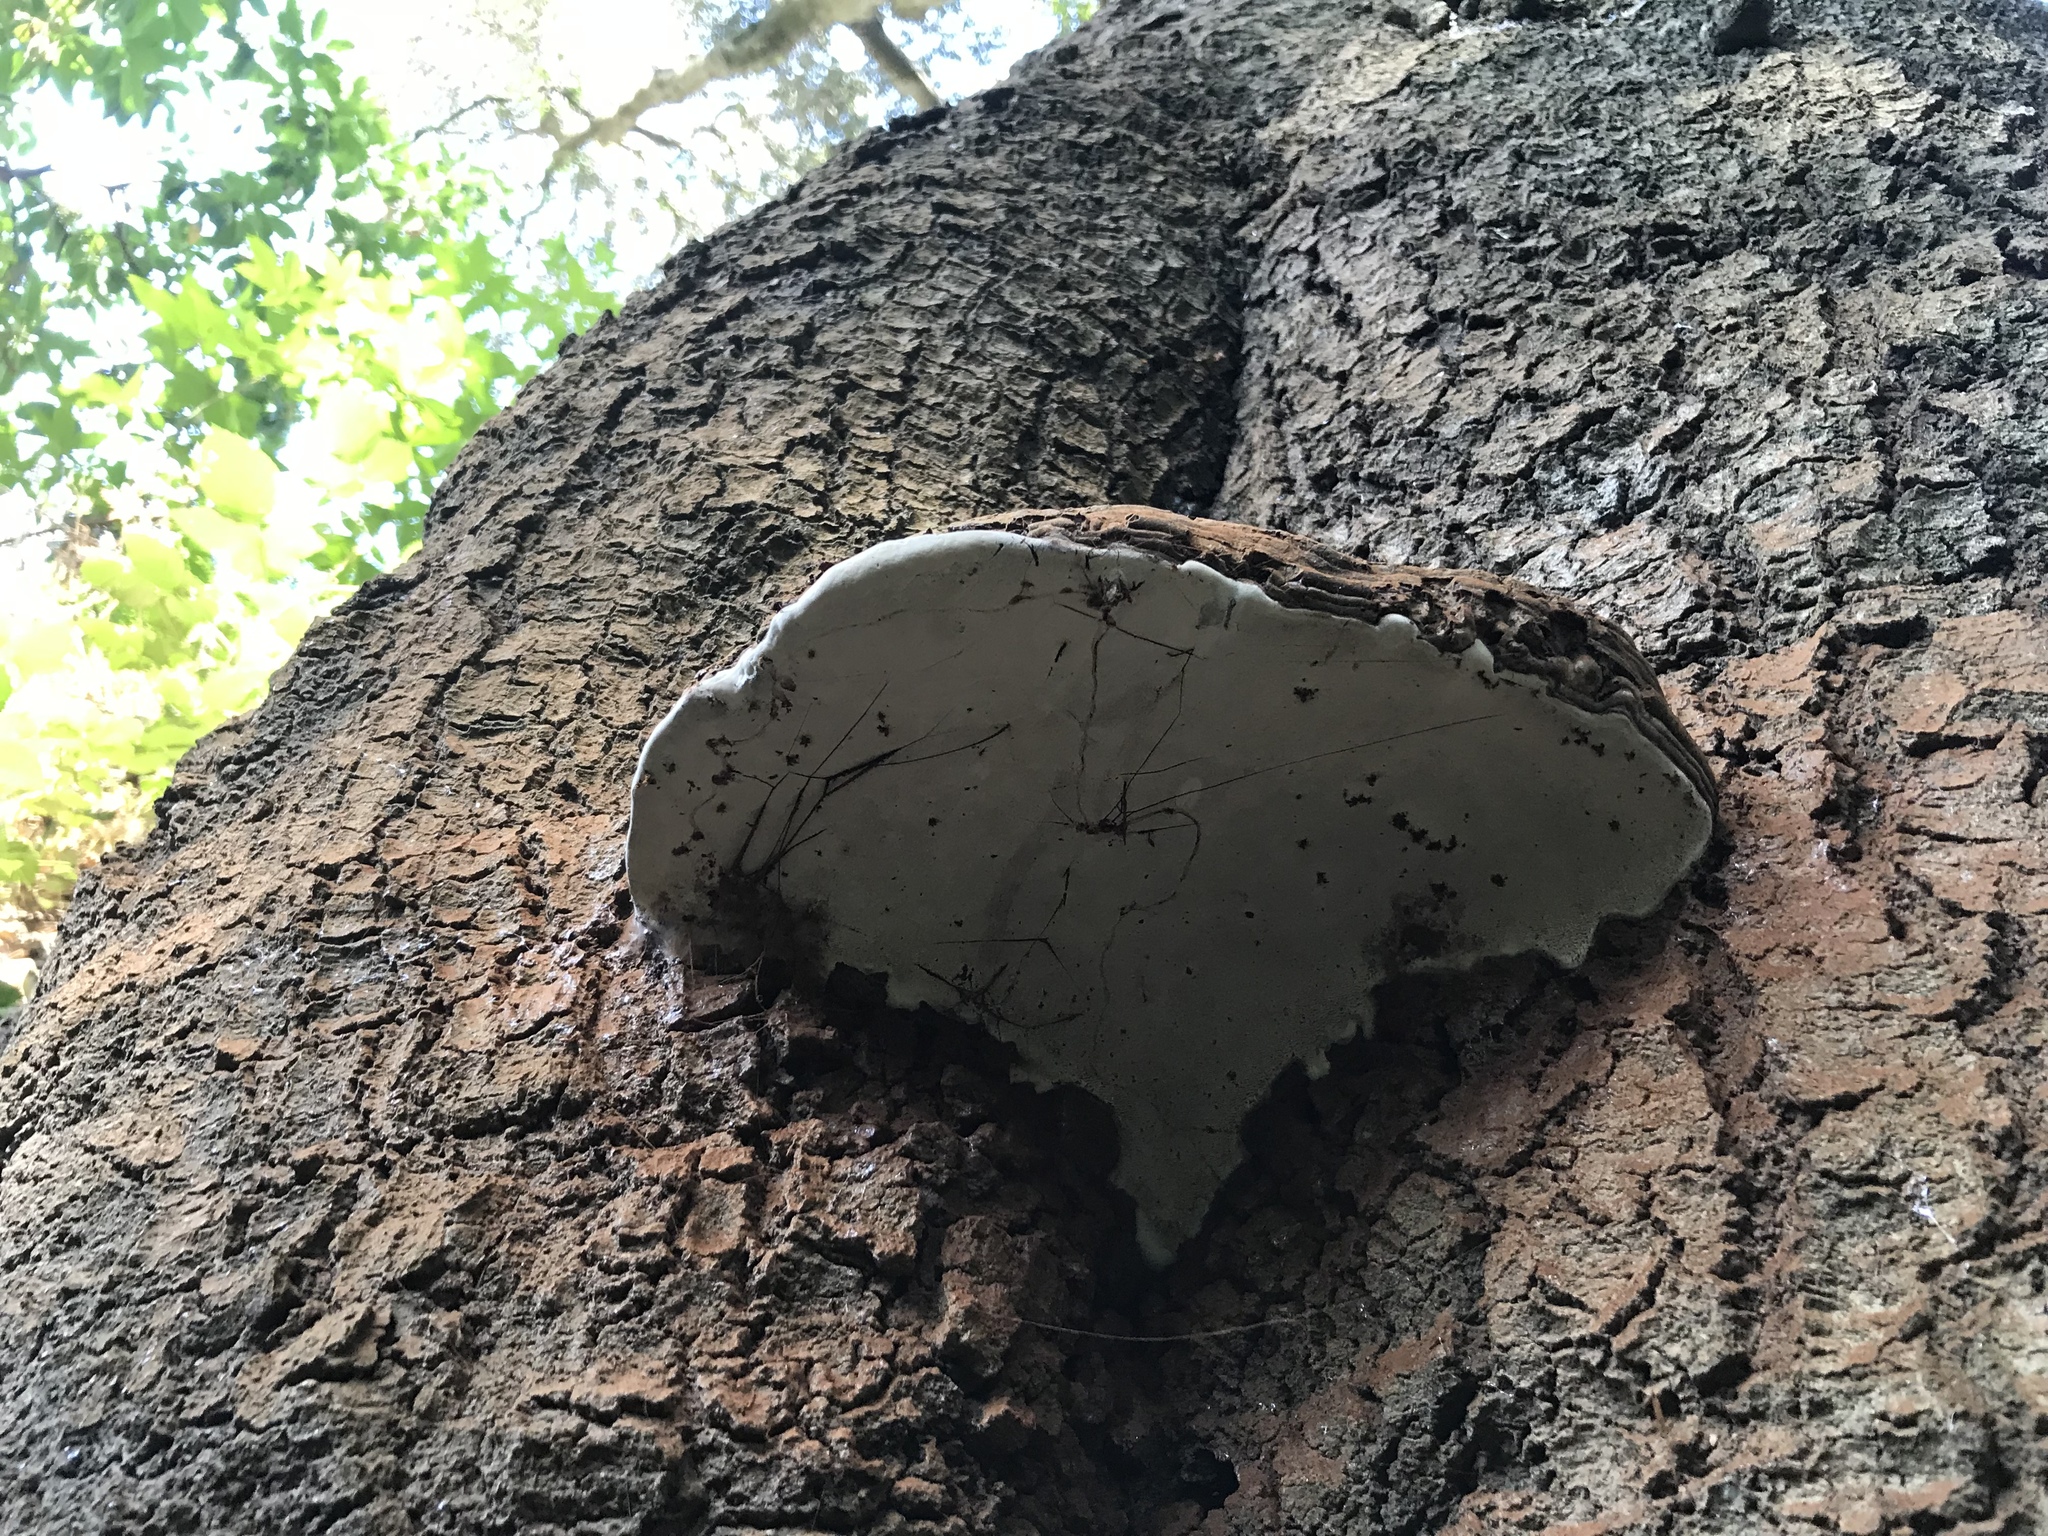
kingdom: Fungi
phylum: Basidiomycota
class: Agaricomycetes
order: Polyporales
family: Polyporaceae
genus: Ganoderma
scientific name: Ganoderma brownii
